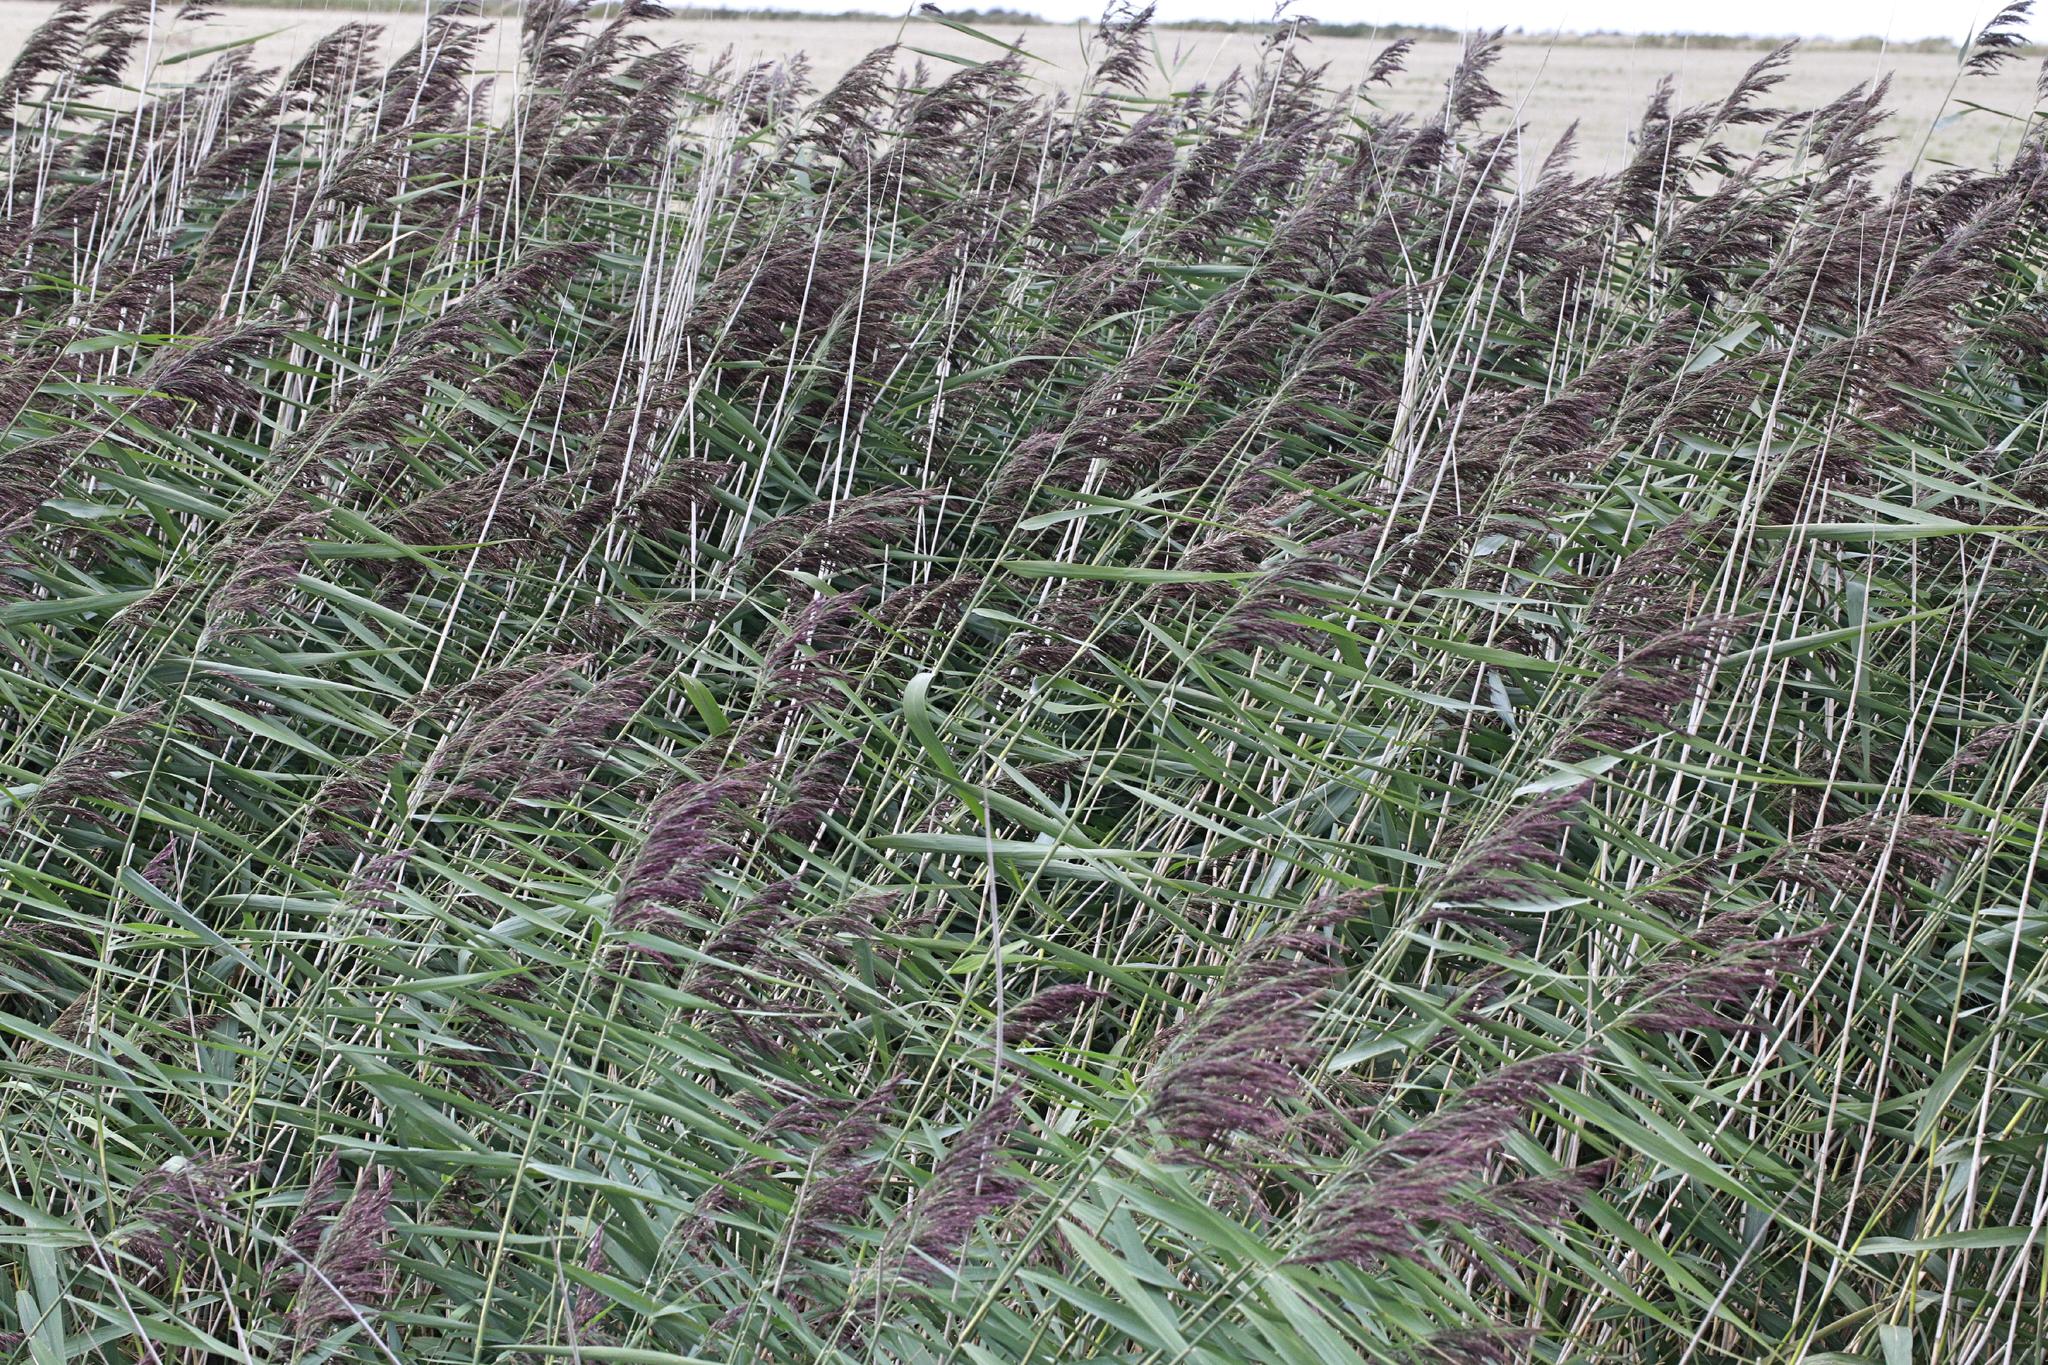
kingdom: Plantae
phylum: Tracheophyta
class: Liliopsida
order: Poales
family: Poaceae
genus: Phragmites
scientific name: Phragmites australis
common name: Common reed
